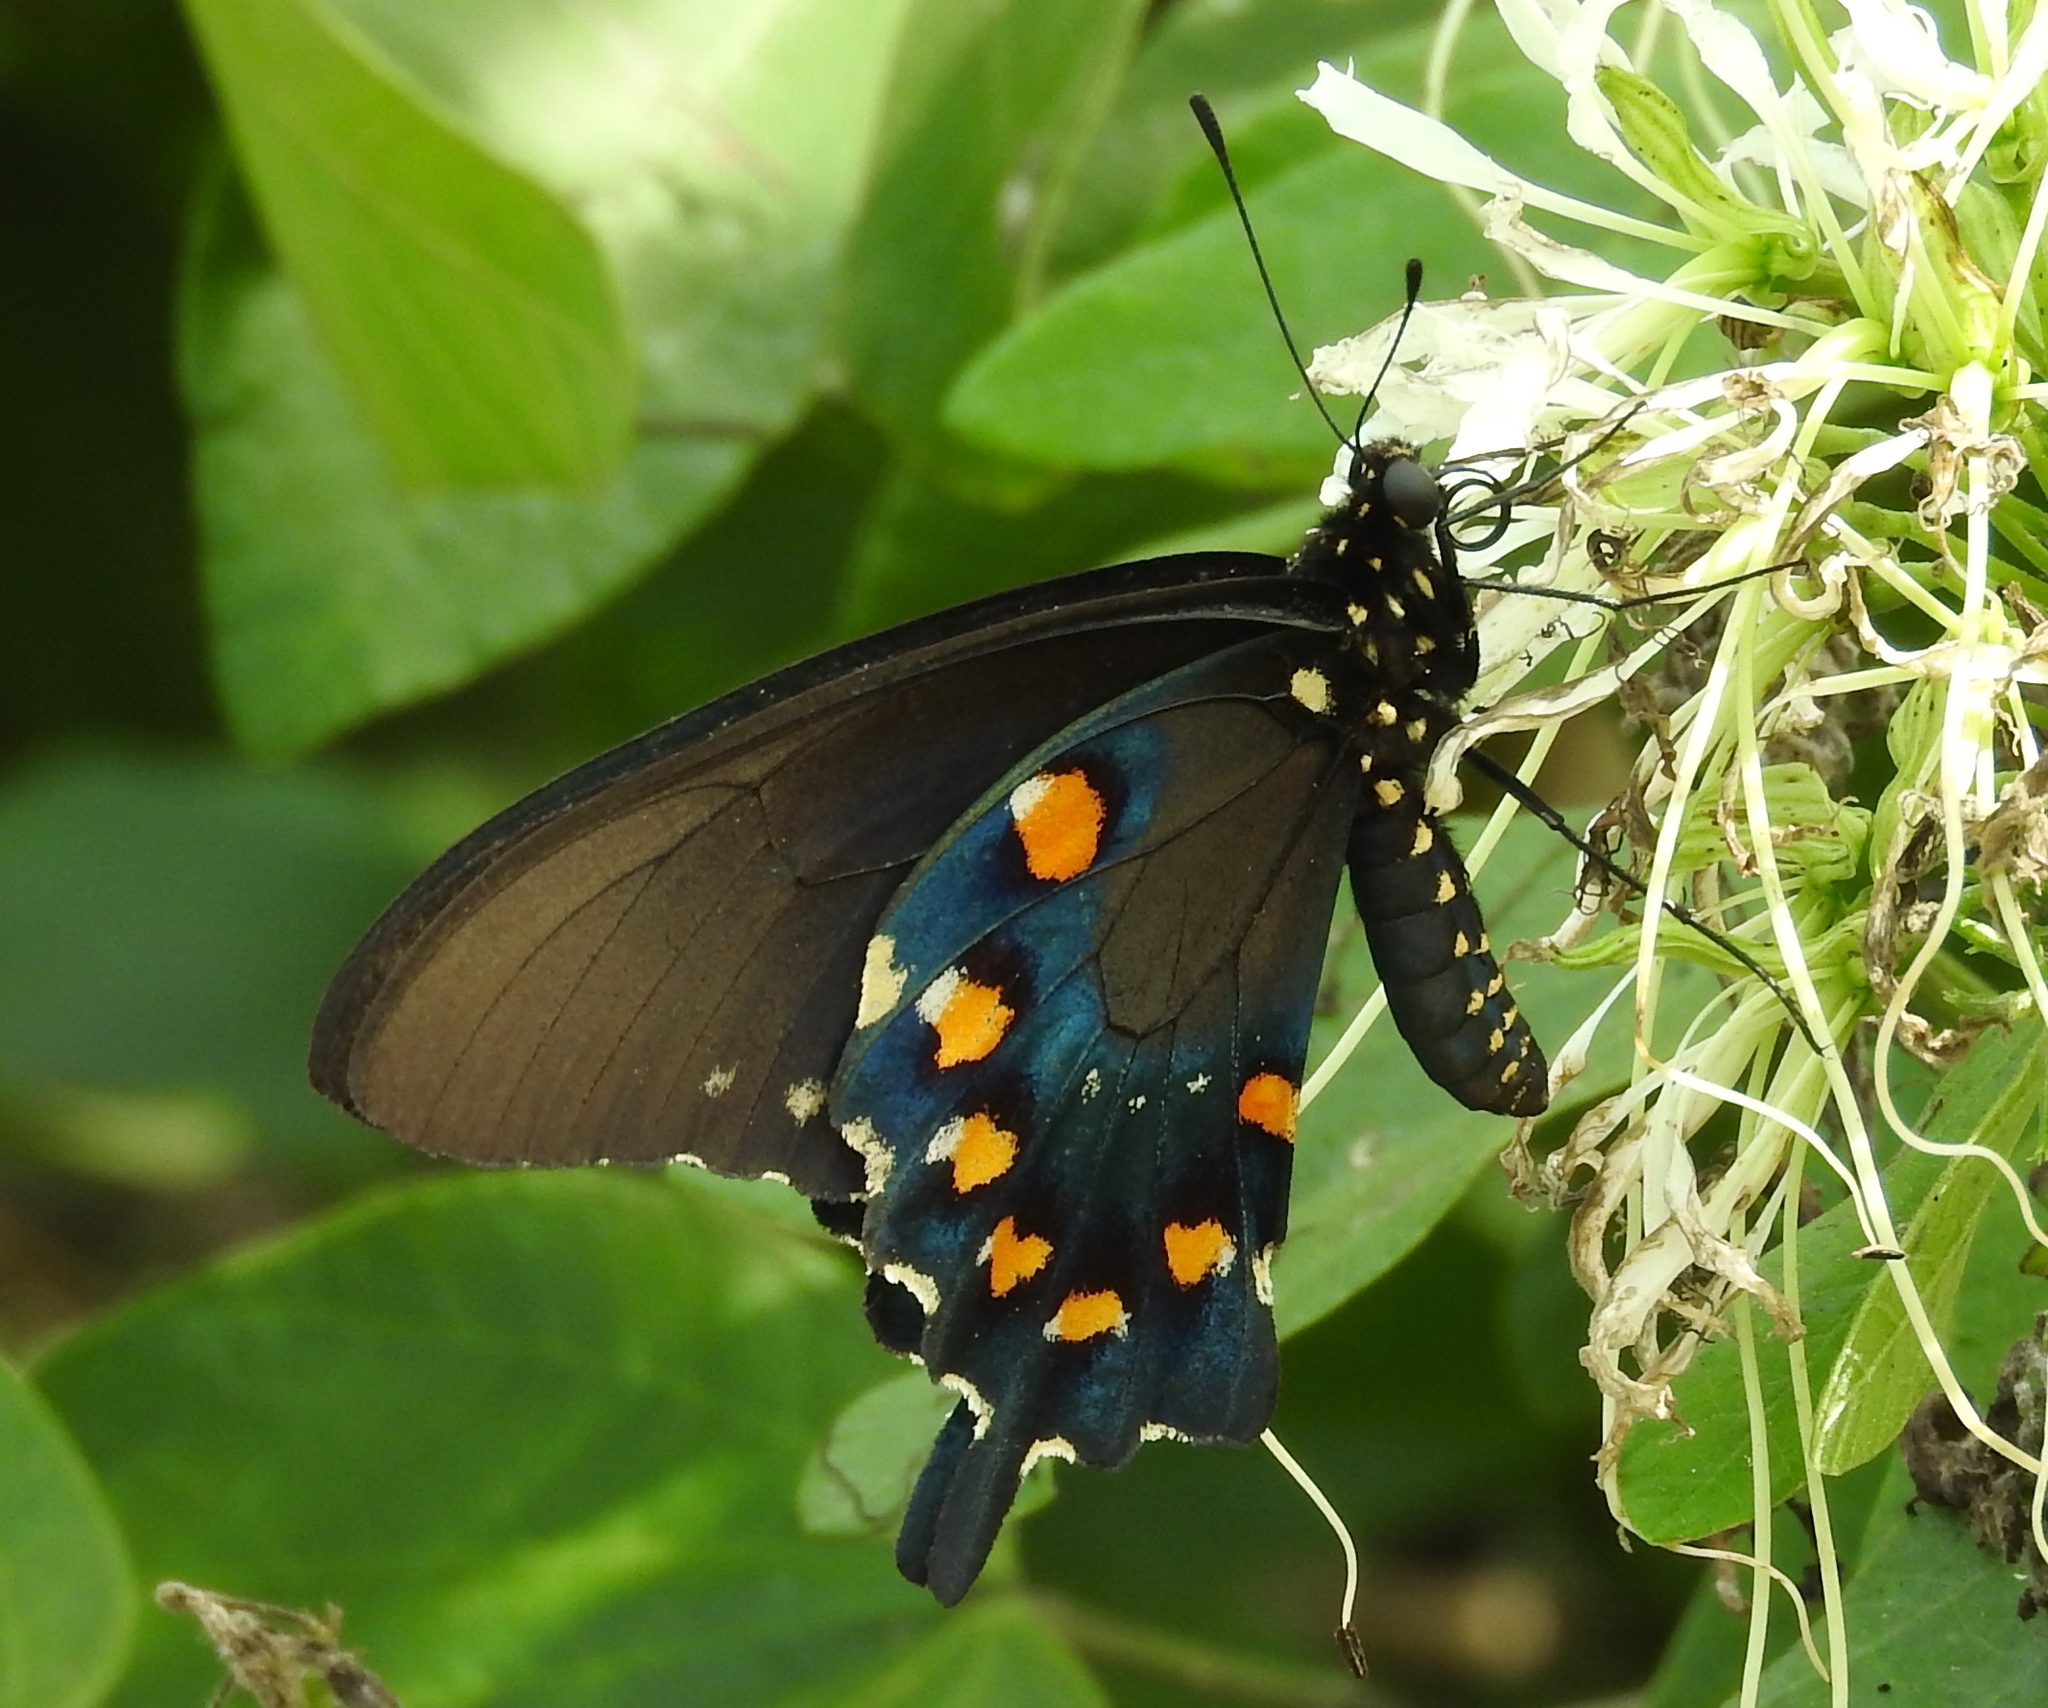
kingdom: Animalia
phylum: Arthropoda
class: Insecta
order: Lepidoptera
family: Papilionidae
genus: Battus
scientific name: Battus philenor
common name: Pipevine swallowtail
